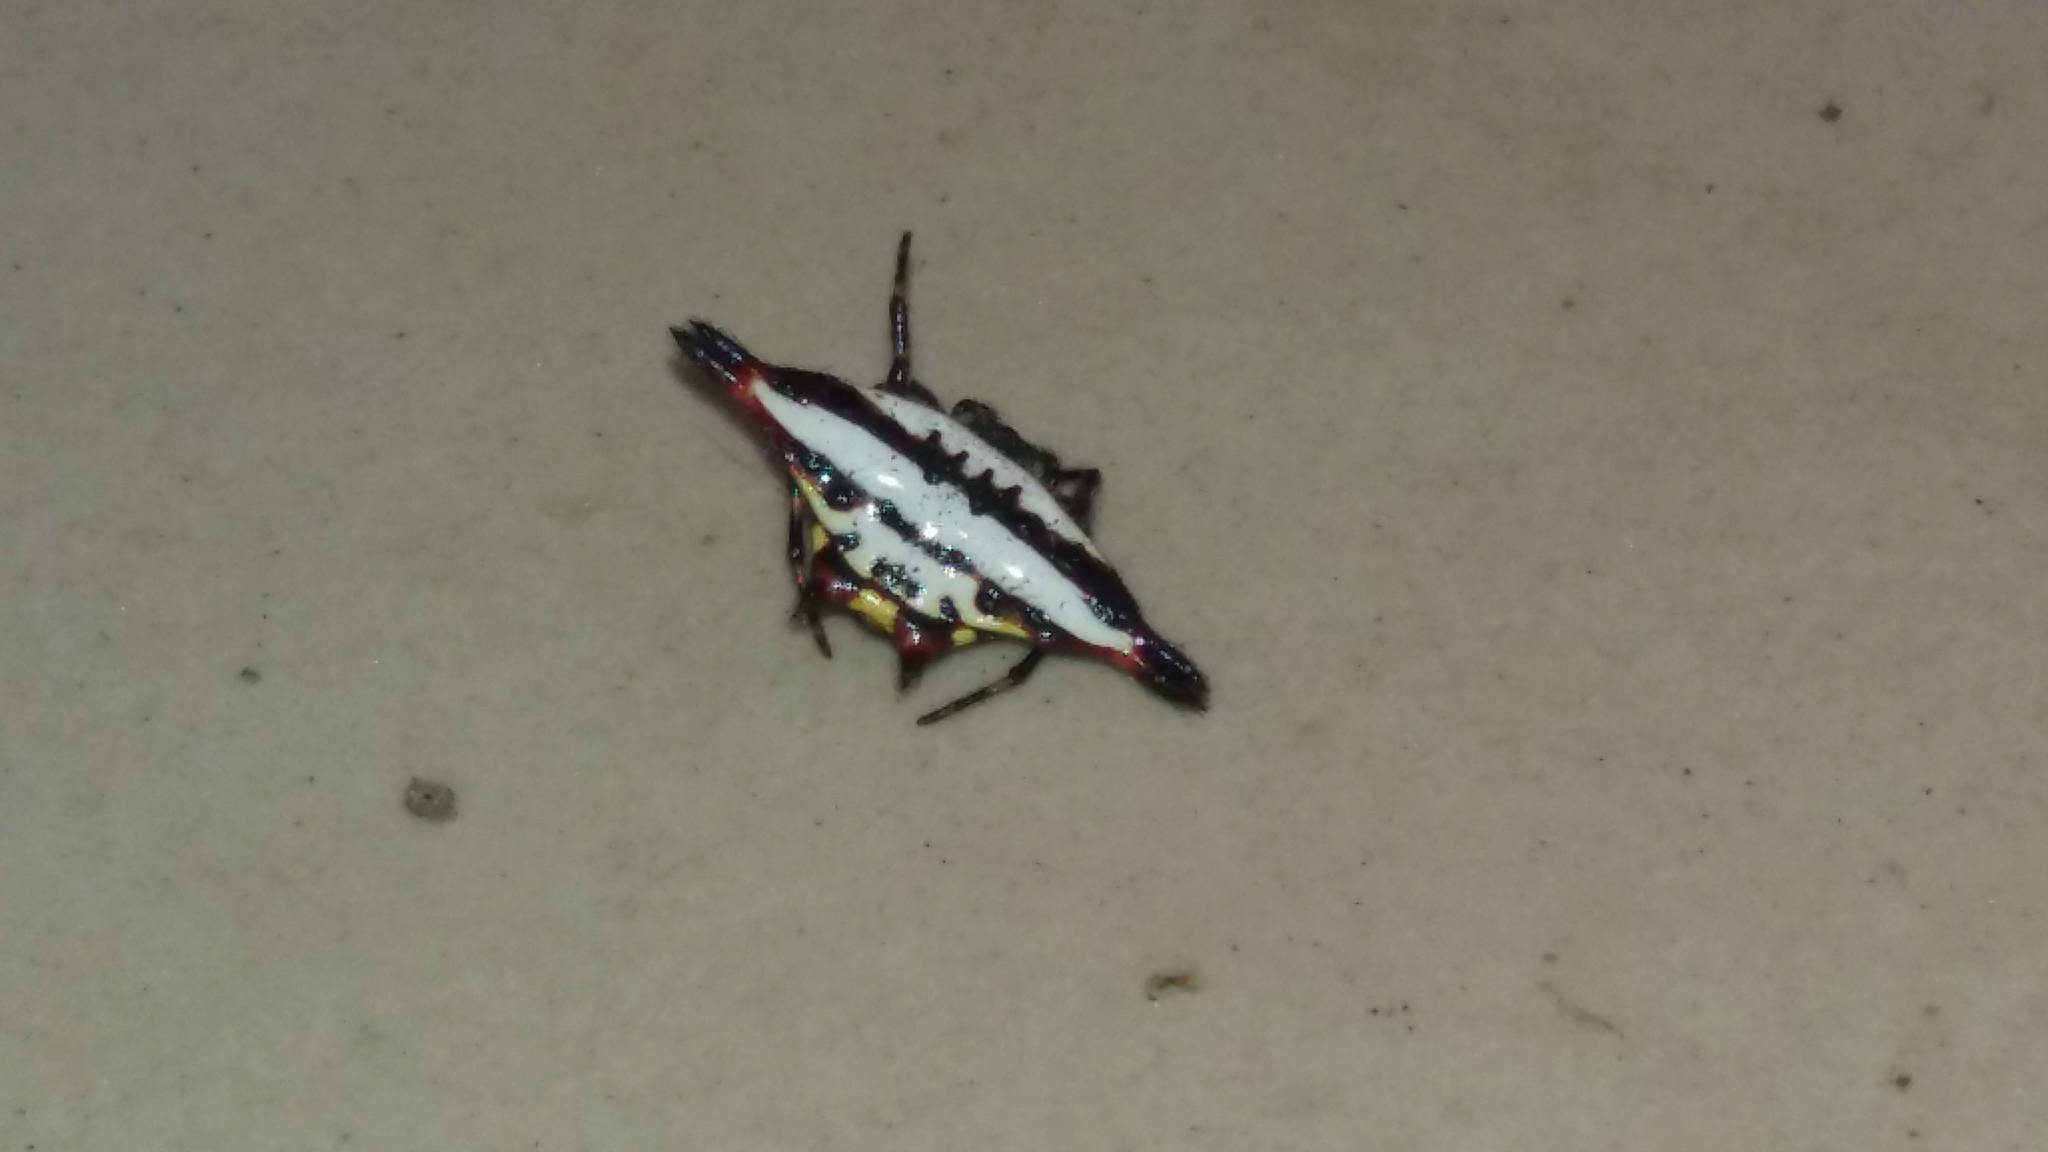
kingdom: Animalia
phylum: Arthropoda
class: Arachnida
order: Araneae
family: Araneidae
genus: Gasteracantha
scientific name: Gasteracantha geminata
